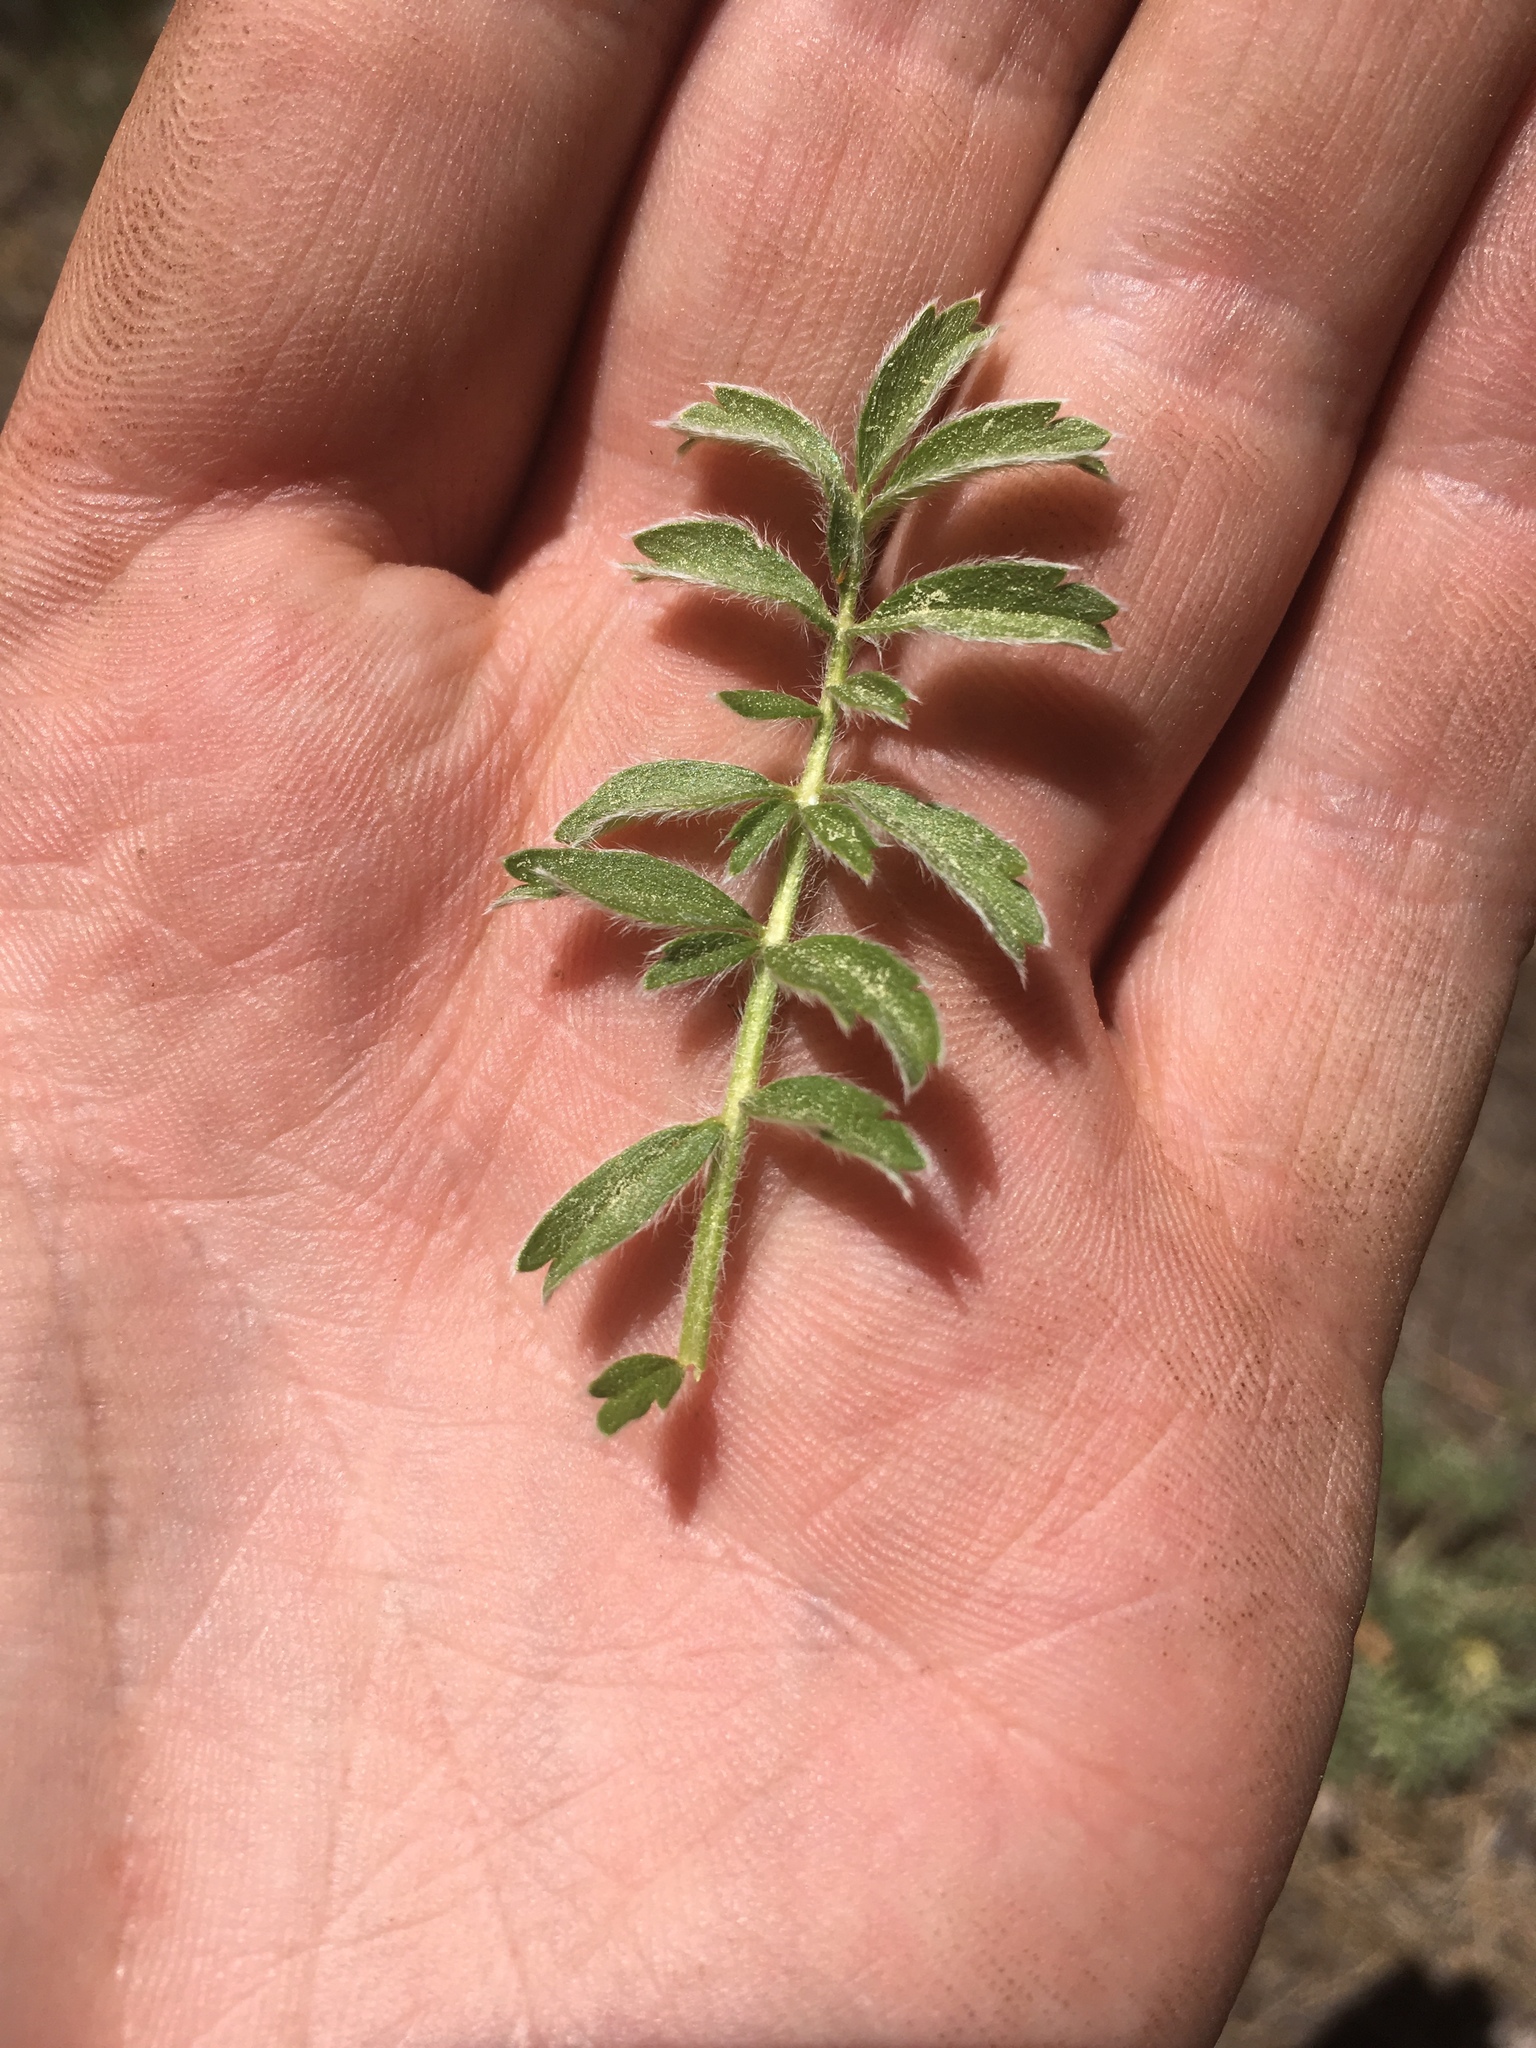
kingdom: Plantae
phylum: Tracheophyta
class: Magnoliopsida
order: Rosales
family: Rosaceae
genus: Potentilla
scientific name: Potentilla crinita
